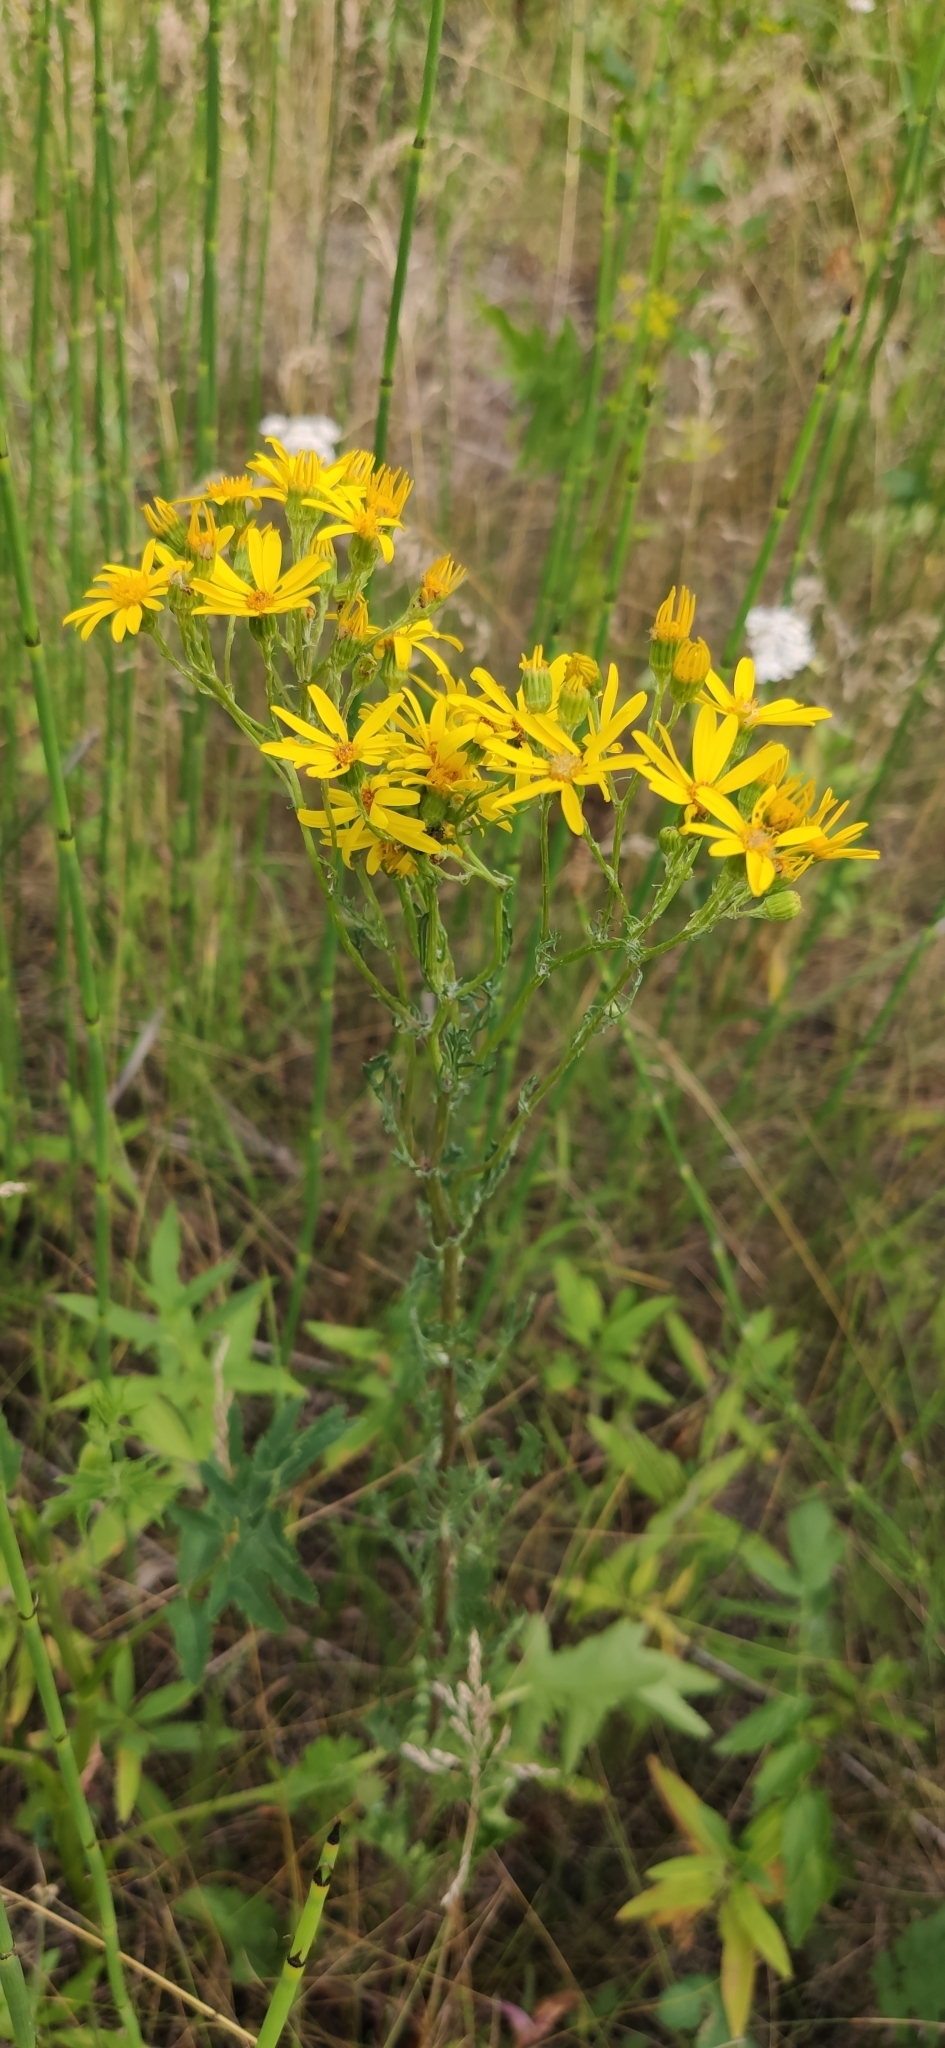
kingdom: Plantae
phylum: Tracheophyta
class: Magnoliopsida
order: Asterales
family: Asteraceae
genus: Jacobaea
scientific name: Jacobaea vulgaris
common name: Stinking willie
